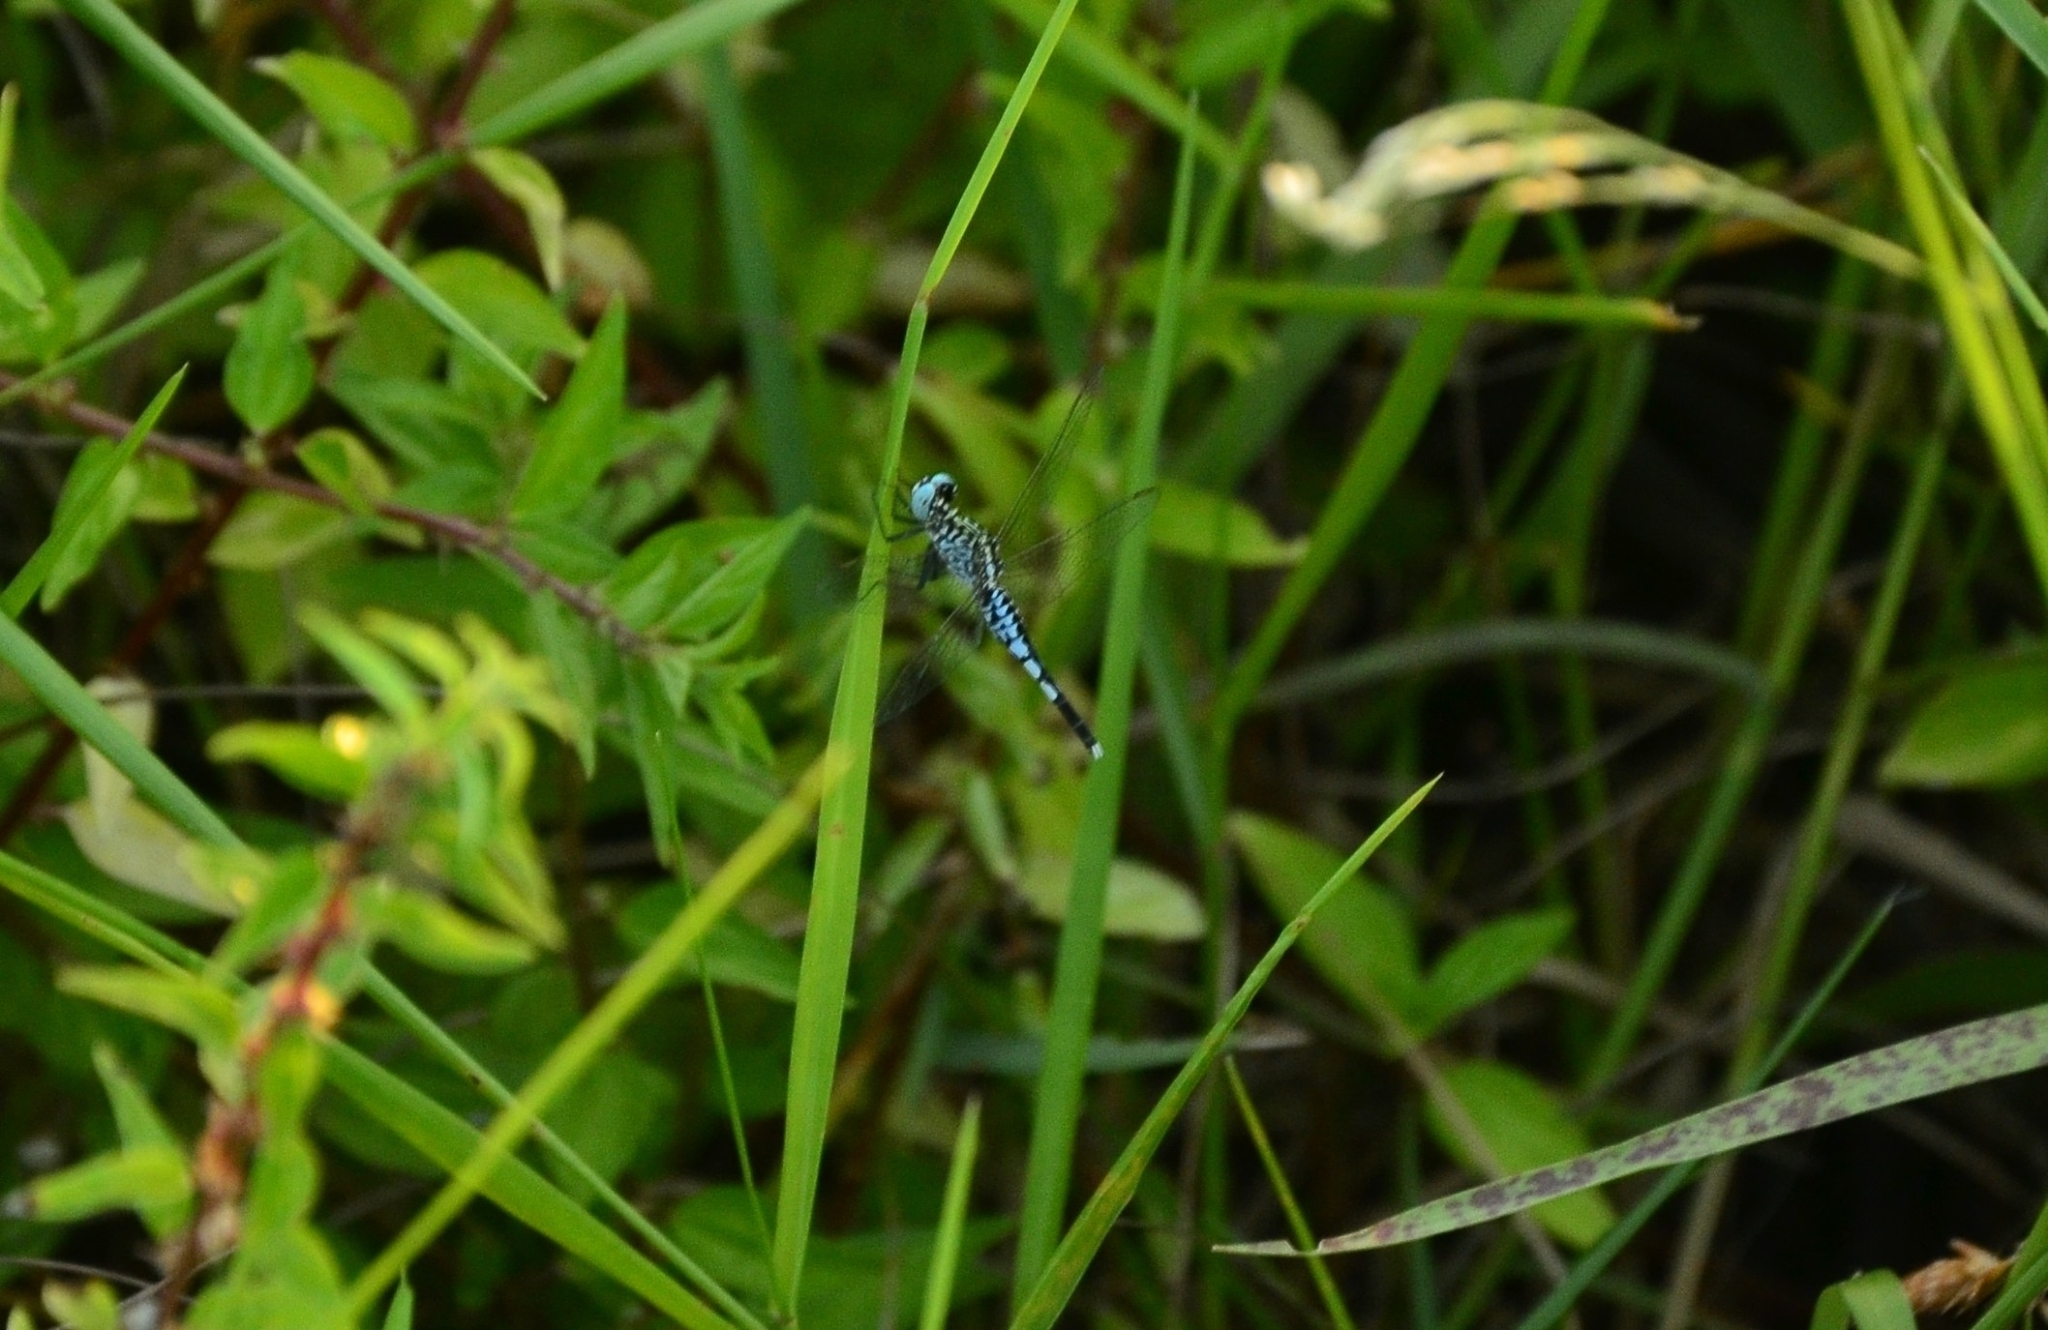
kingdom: Animalia
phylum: Arthropoda
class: Insecta
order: Odonata
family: Libellulidae
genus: Acisoma
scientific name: Acisoma panorpoides
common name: Asian pintail
